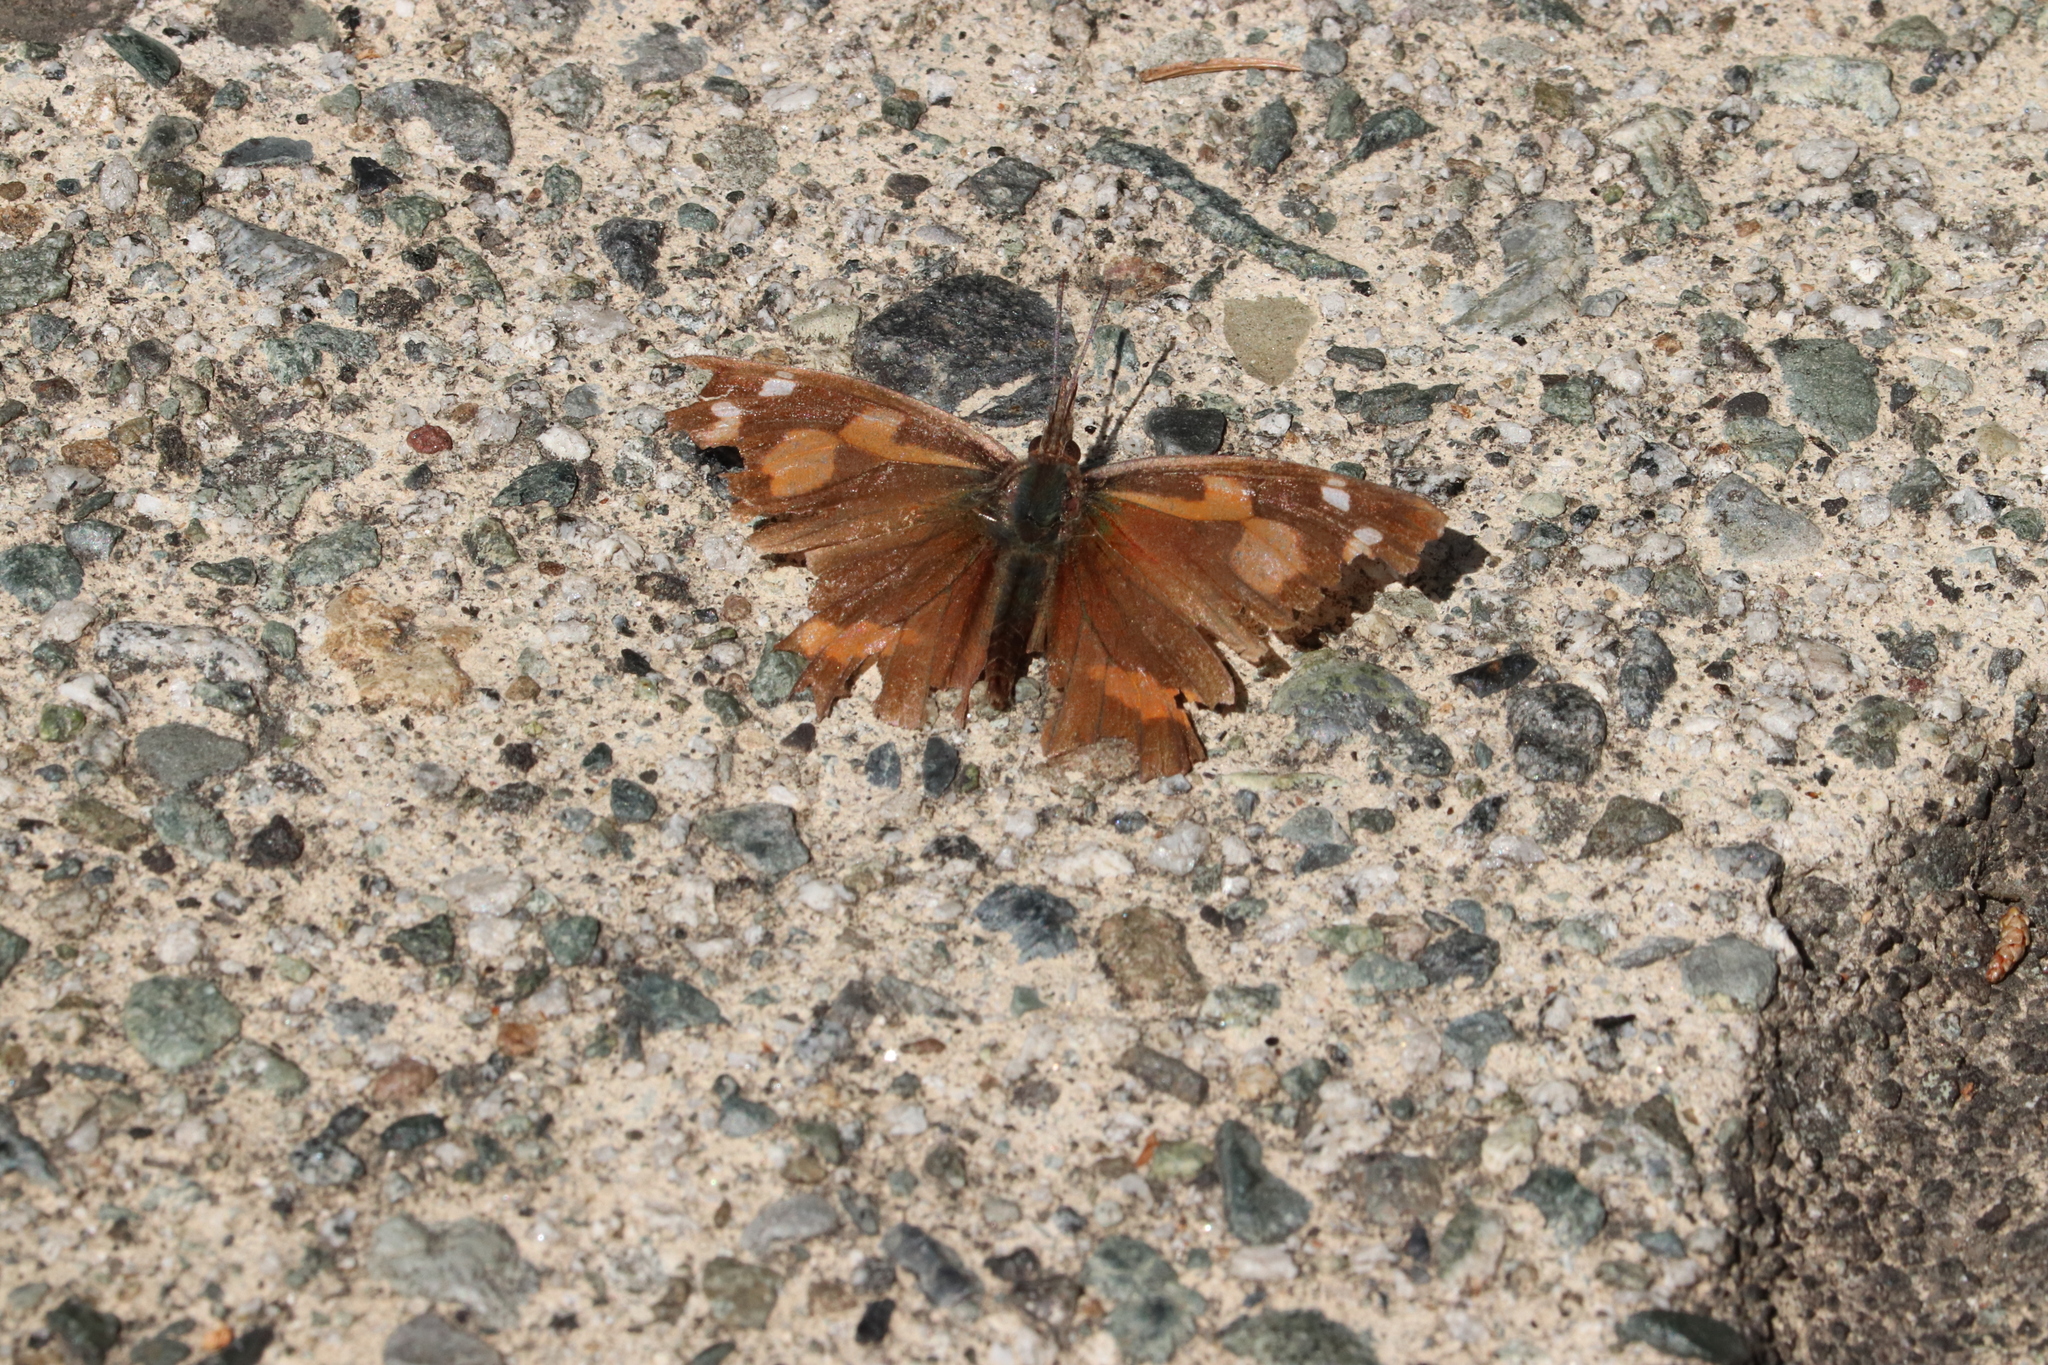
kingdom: Animalia
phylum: Arthropoda
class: Insecta
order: Lepidoptera
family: Nymphalidae
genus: Libythea
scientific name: Libythea lepita
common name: Common beak
